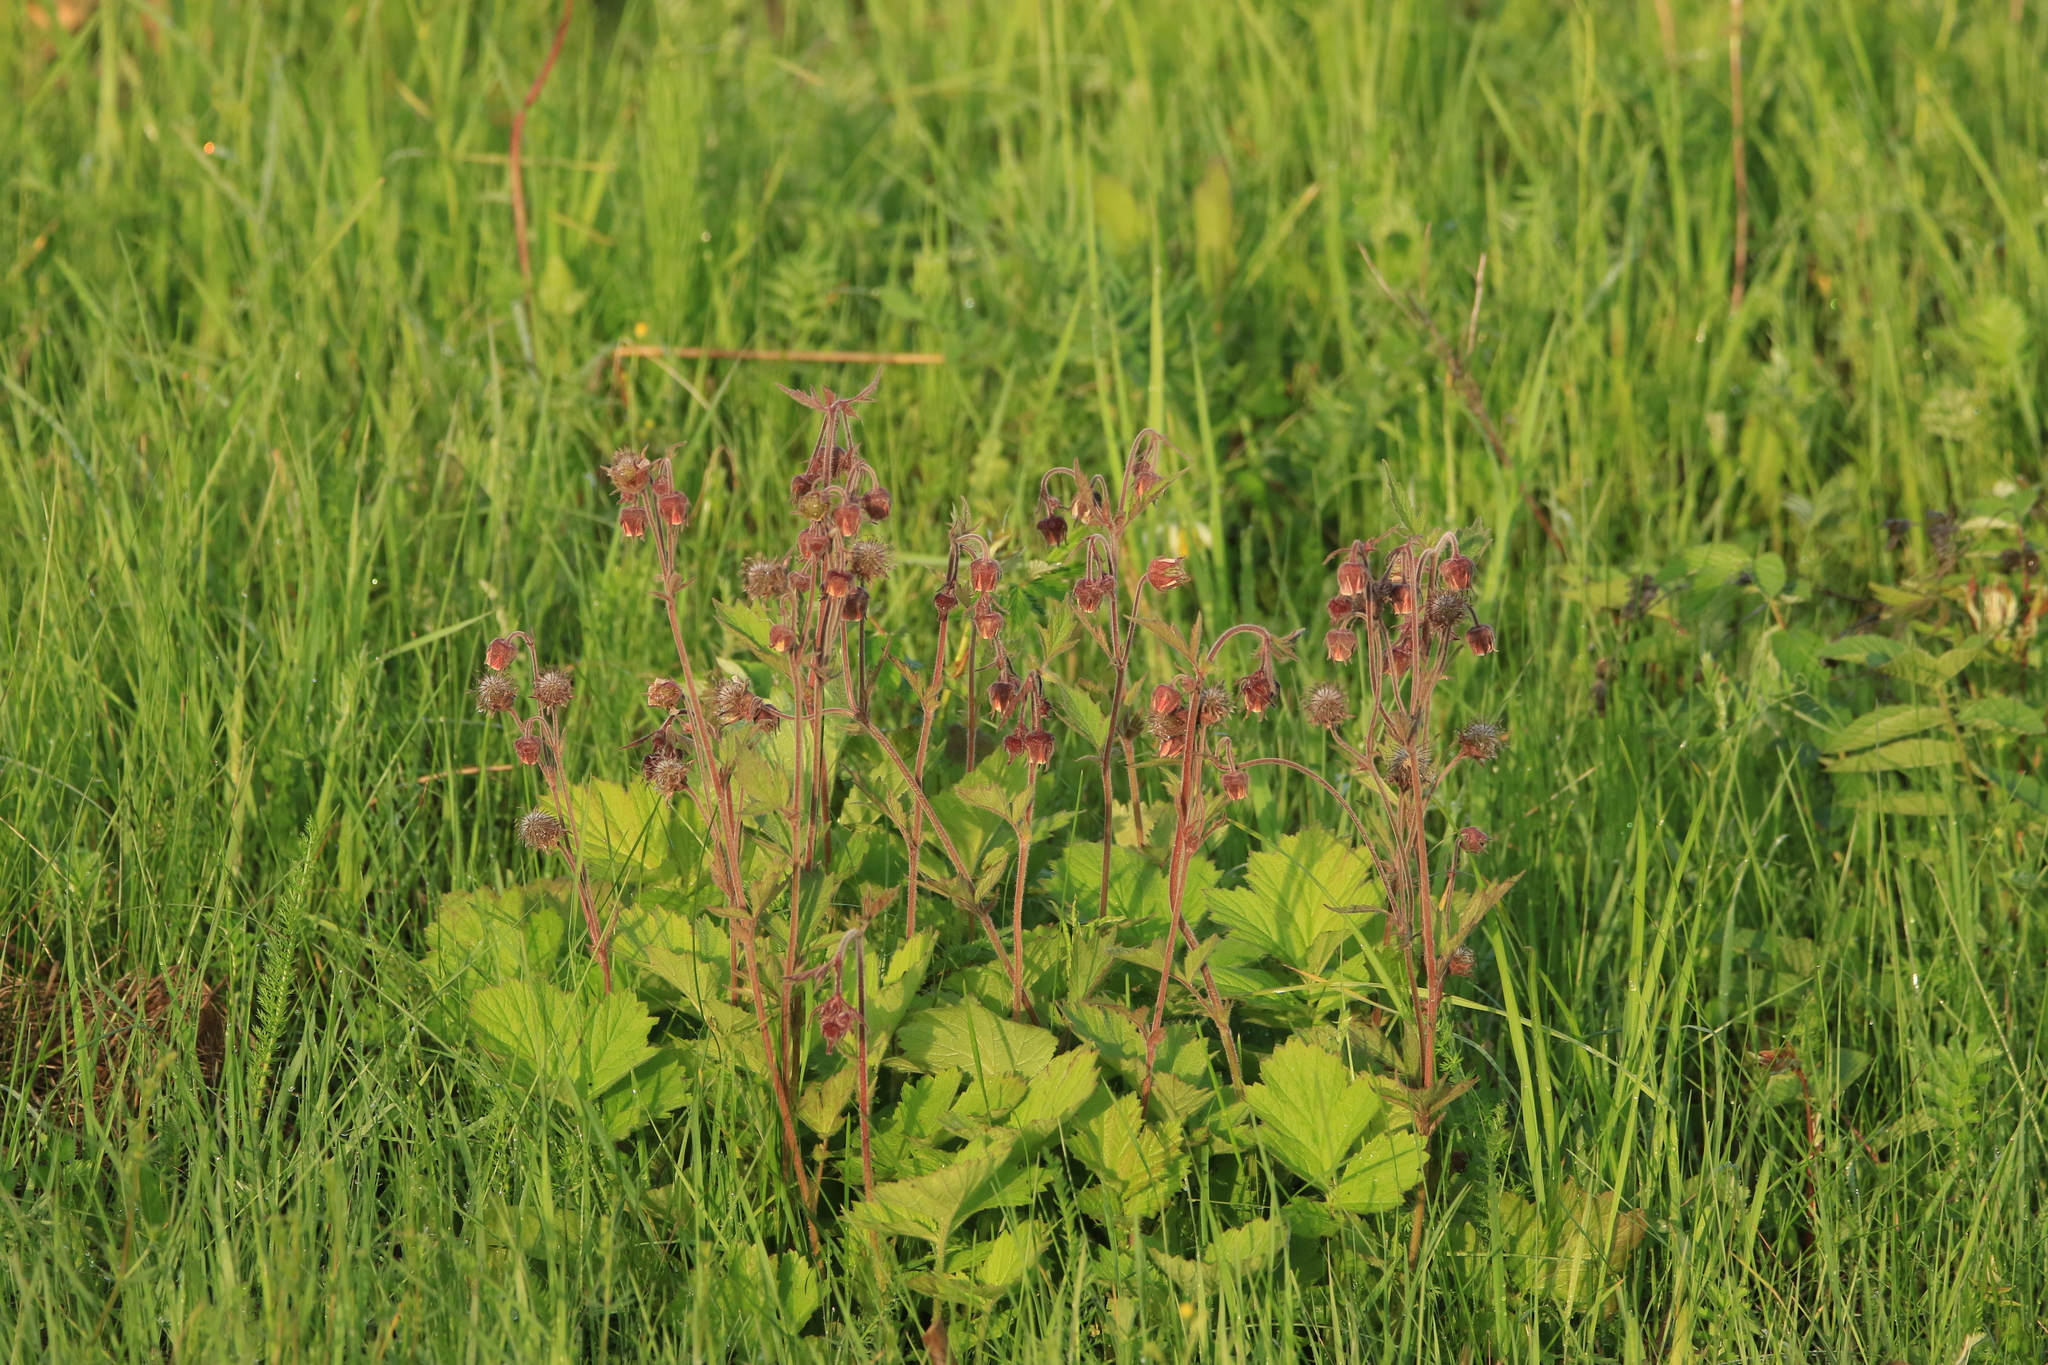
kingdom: Plantae
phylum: Tracheophyta
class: Magnoliopsida
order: Rosales
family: Rosaceae
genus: Geum
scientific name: Geum rivale
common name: Water avens
